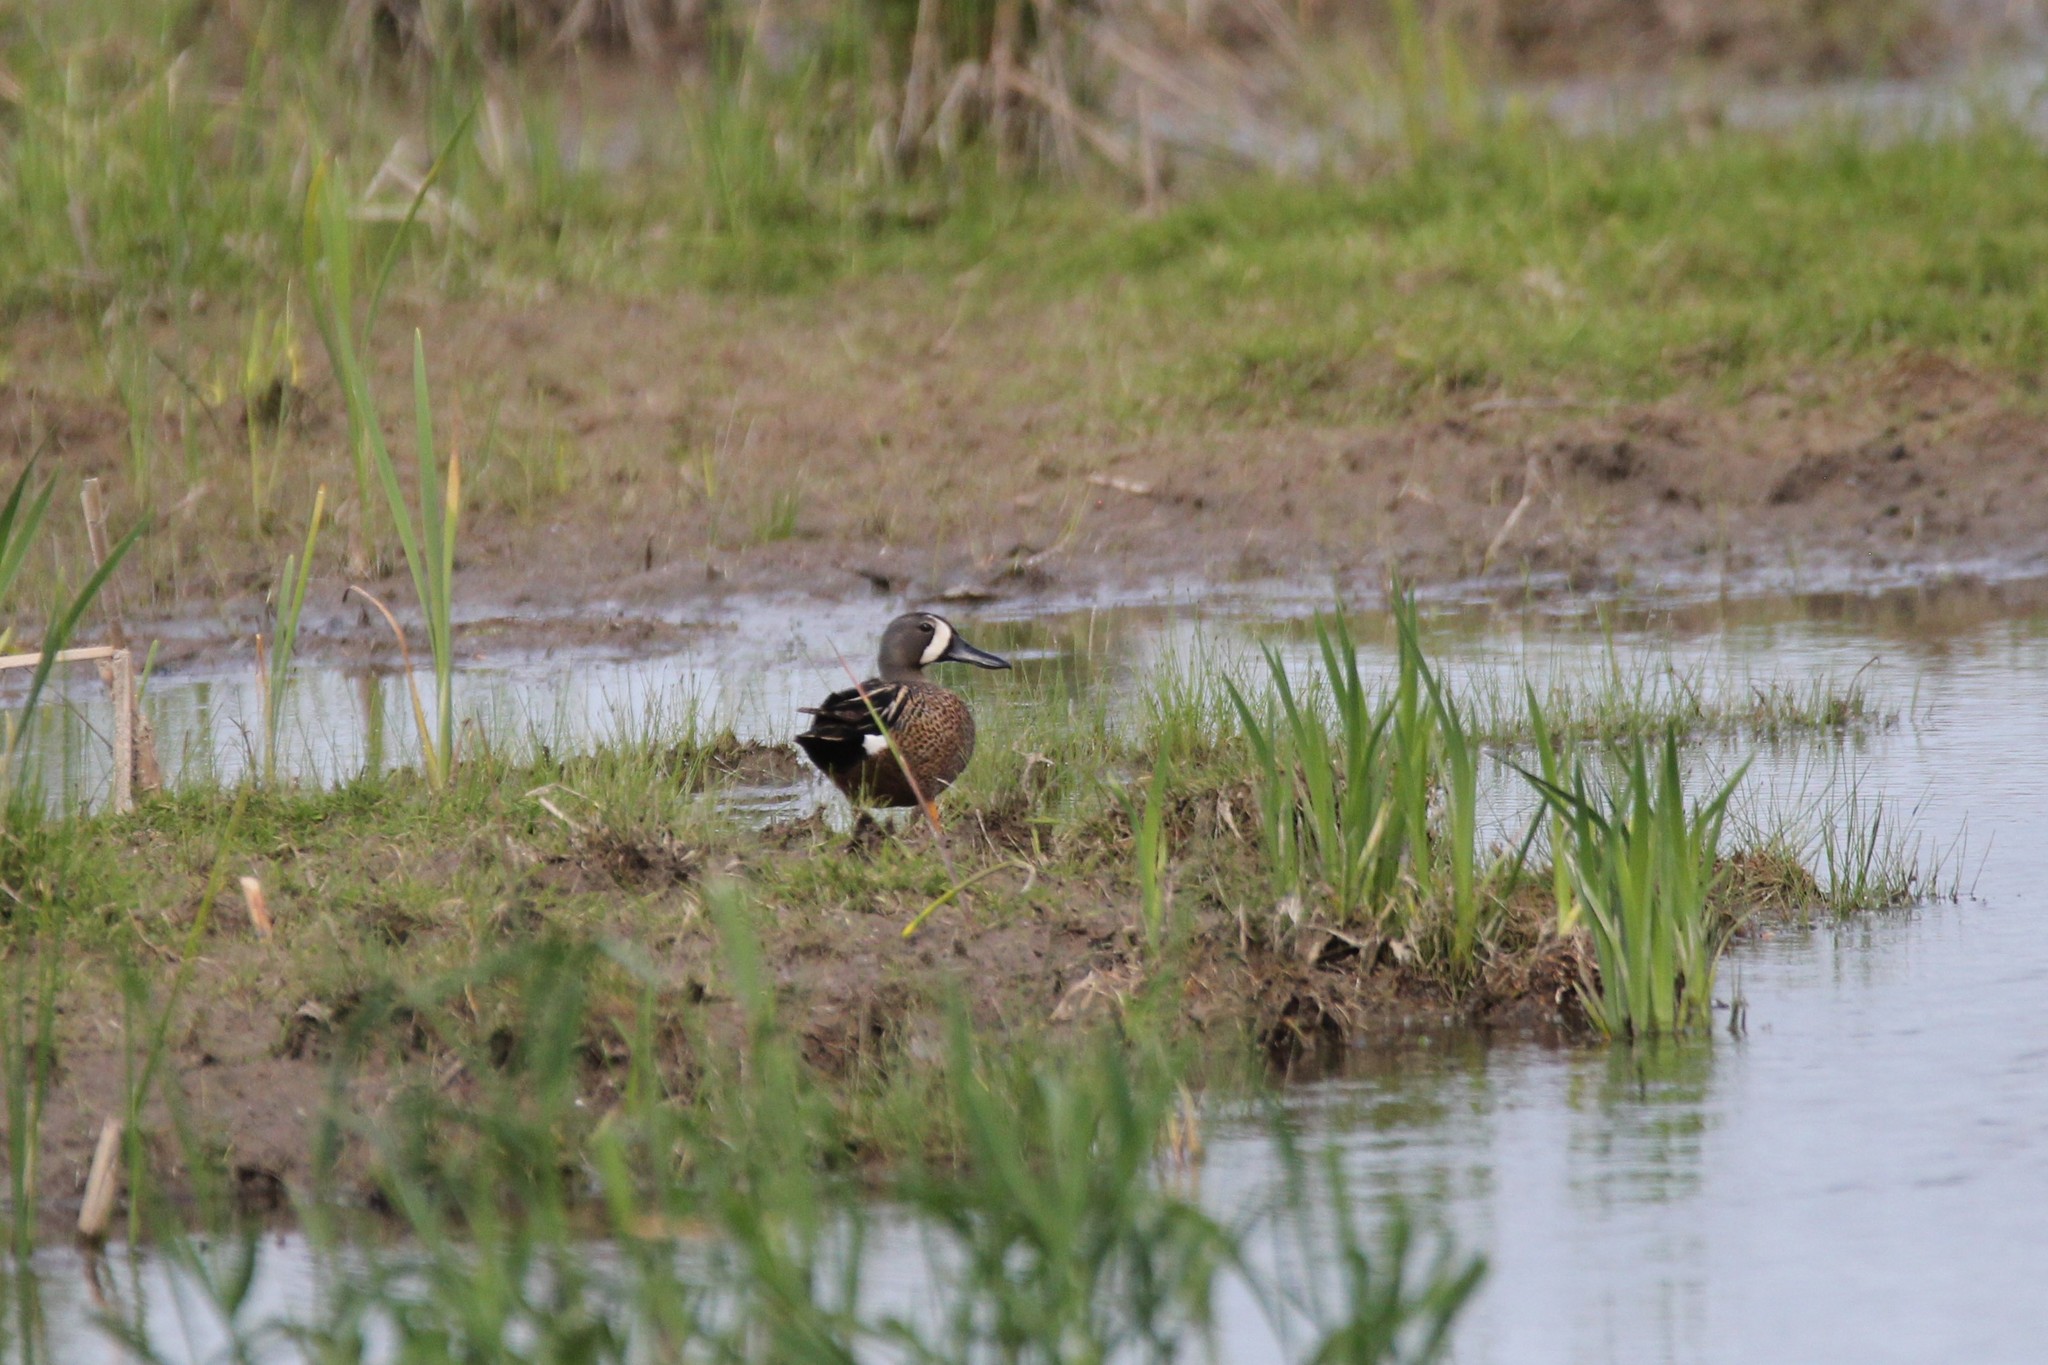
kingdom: Animalia
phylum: Chordata
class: Aves
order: Anseriformes
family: Anatidae
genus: Spatula
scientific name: Spatula discors
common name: Blue-winged teal
